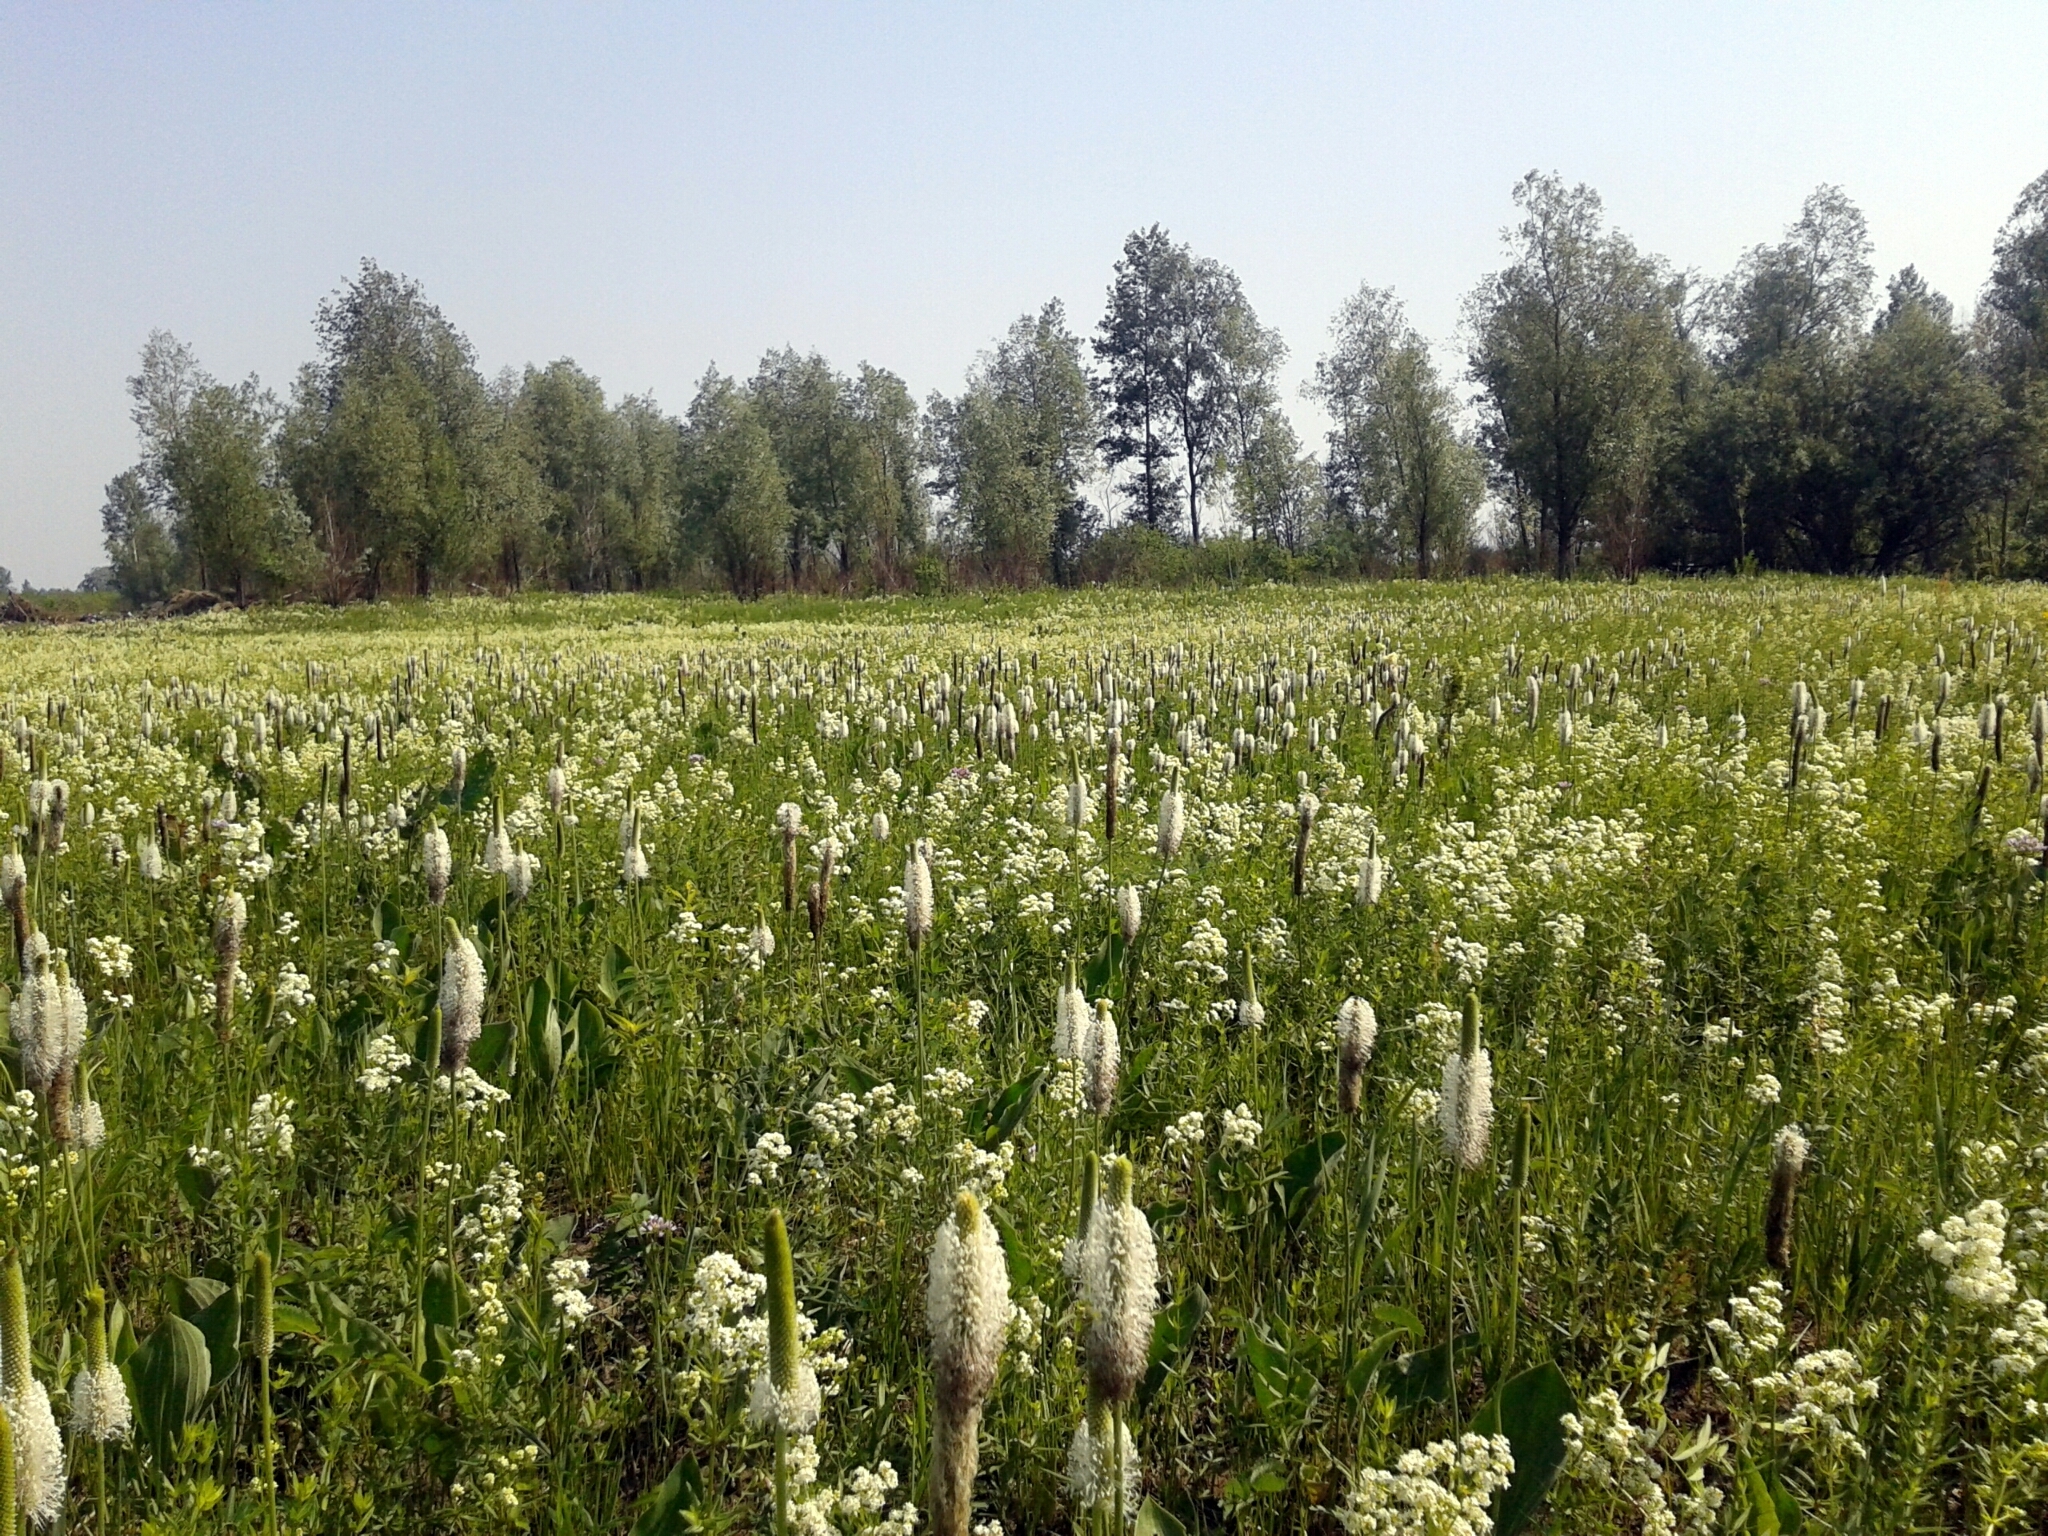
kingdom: Plantae
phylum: Tracheophyta
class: Magnoliopsida
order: Lamiales
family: Plantaginaceae
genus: Plantago
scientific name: Plantago maxima
